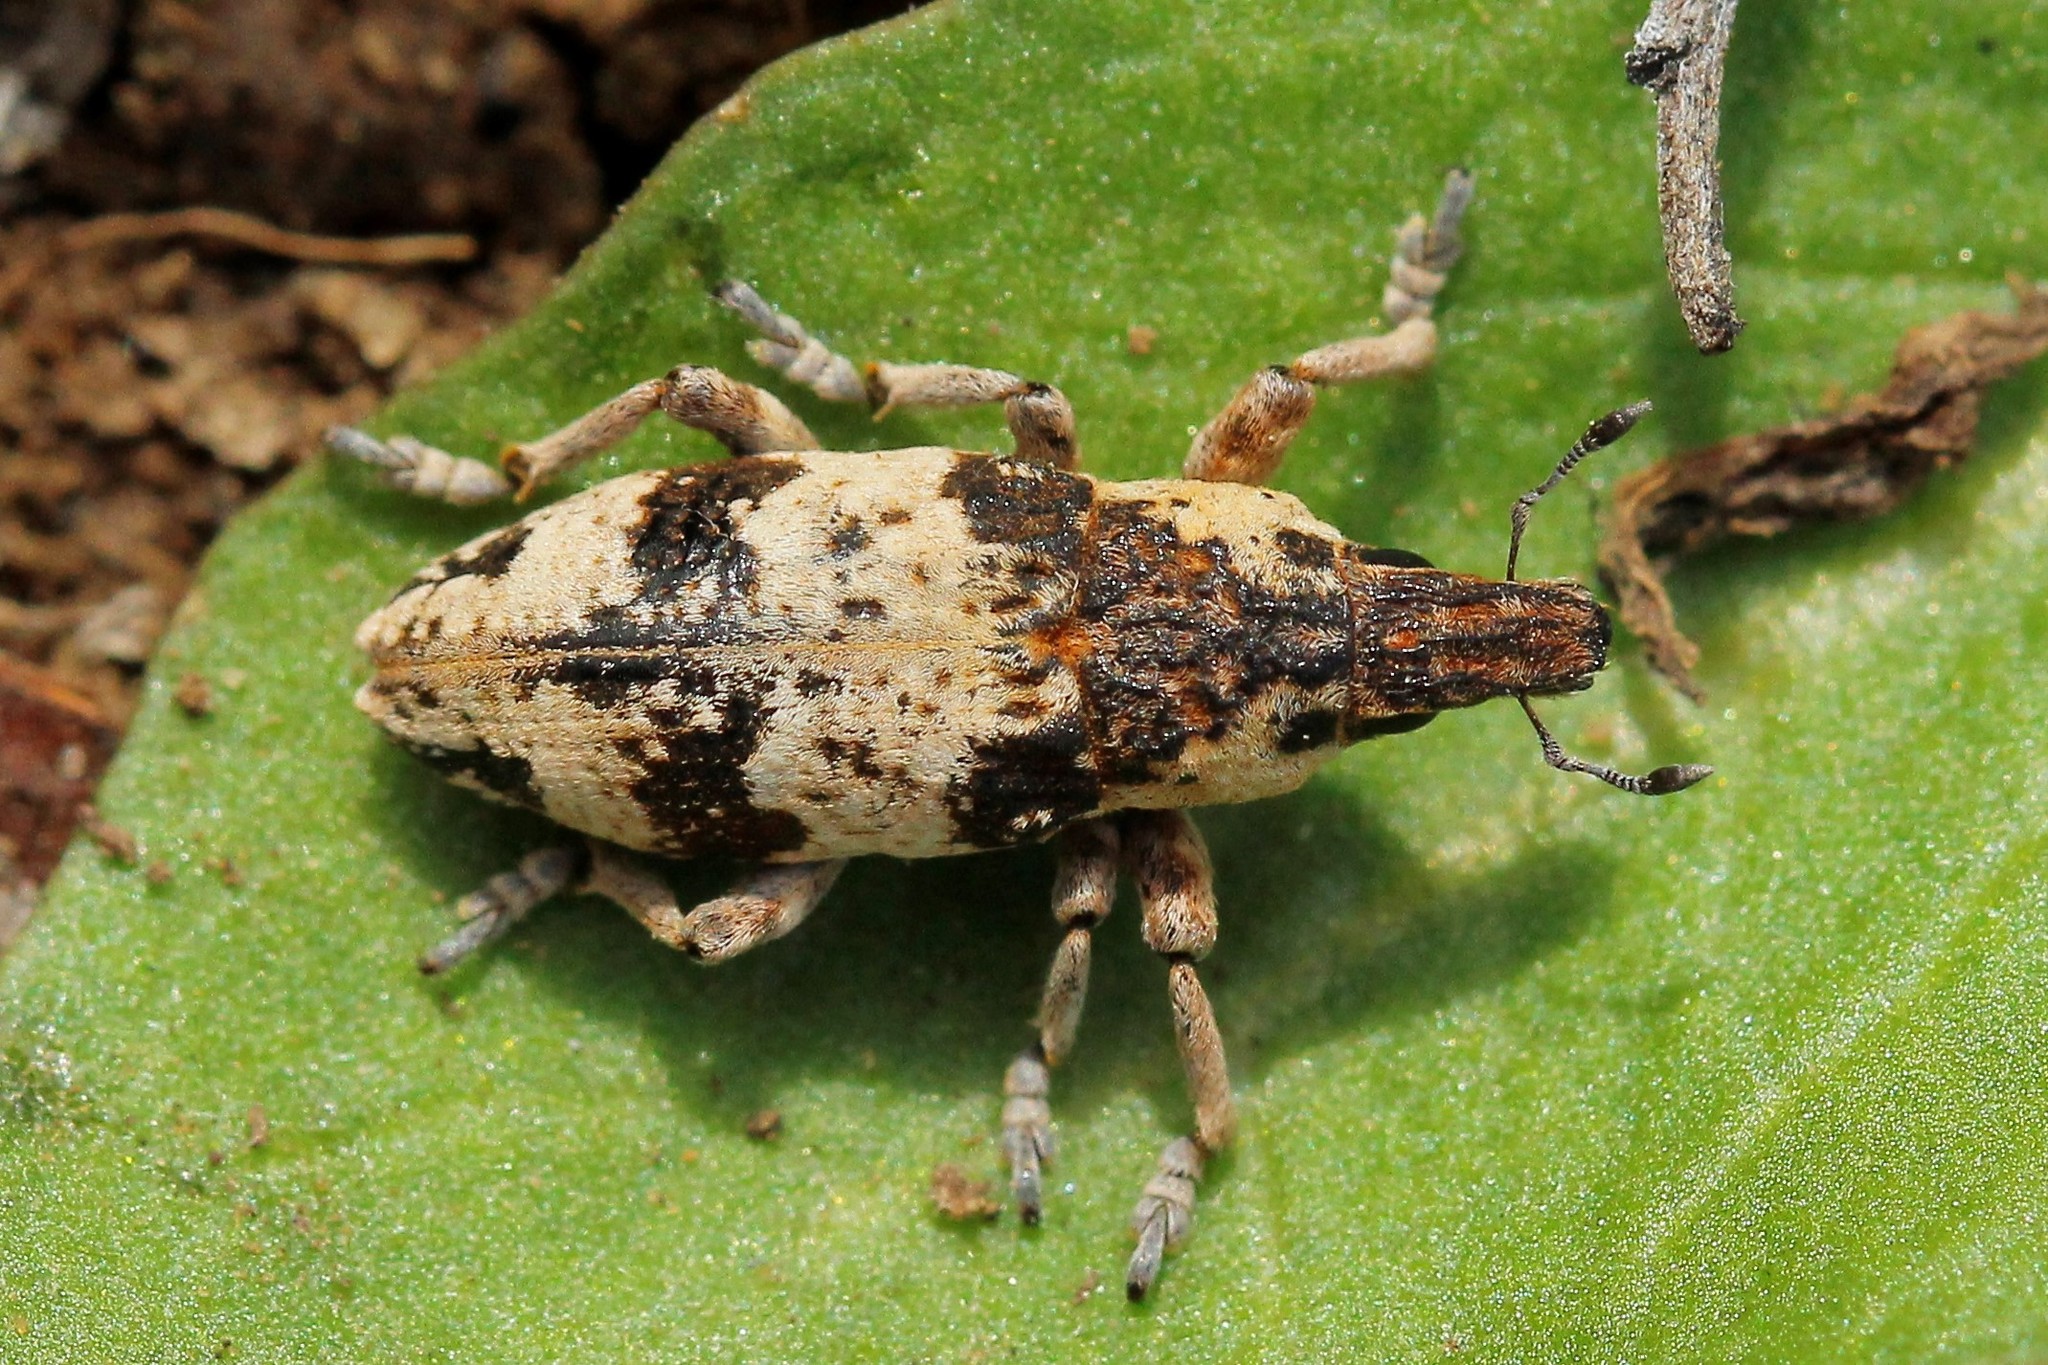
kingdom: Animalia
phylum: Arthropoda
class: Insecta
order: Coleoptera
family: Curculionidae
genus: Bothynoderes
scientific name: Bothynoderes affinis
